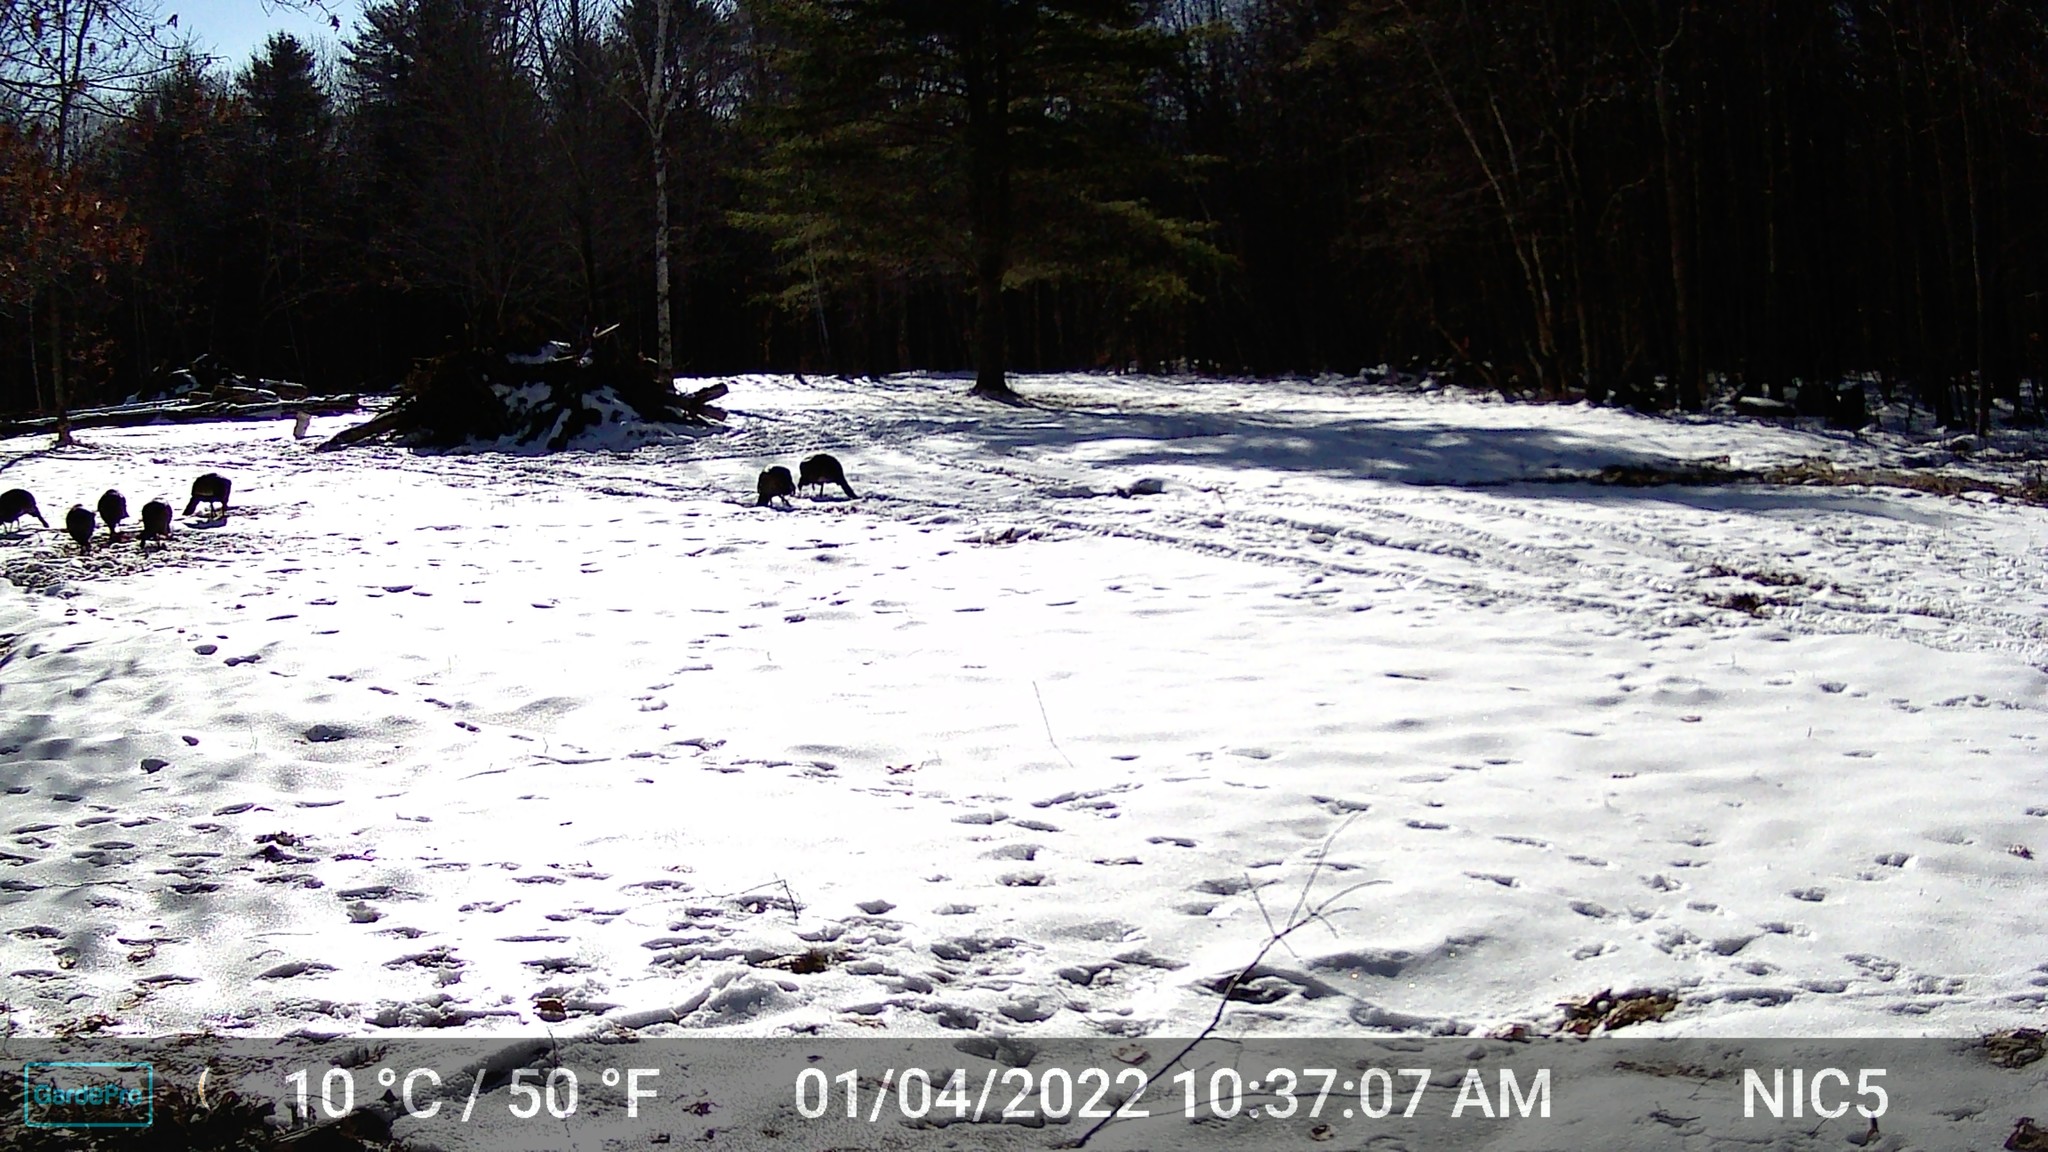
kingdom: Animalia
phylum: Chordata
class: Aves
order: Galliformes
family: Phasianidae
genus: Meleagris
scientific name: Meleagris gallopavo
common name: Wild turkey
